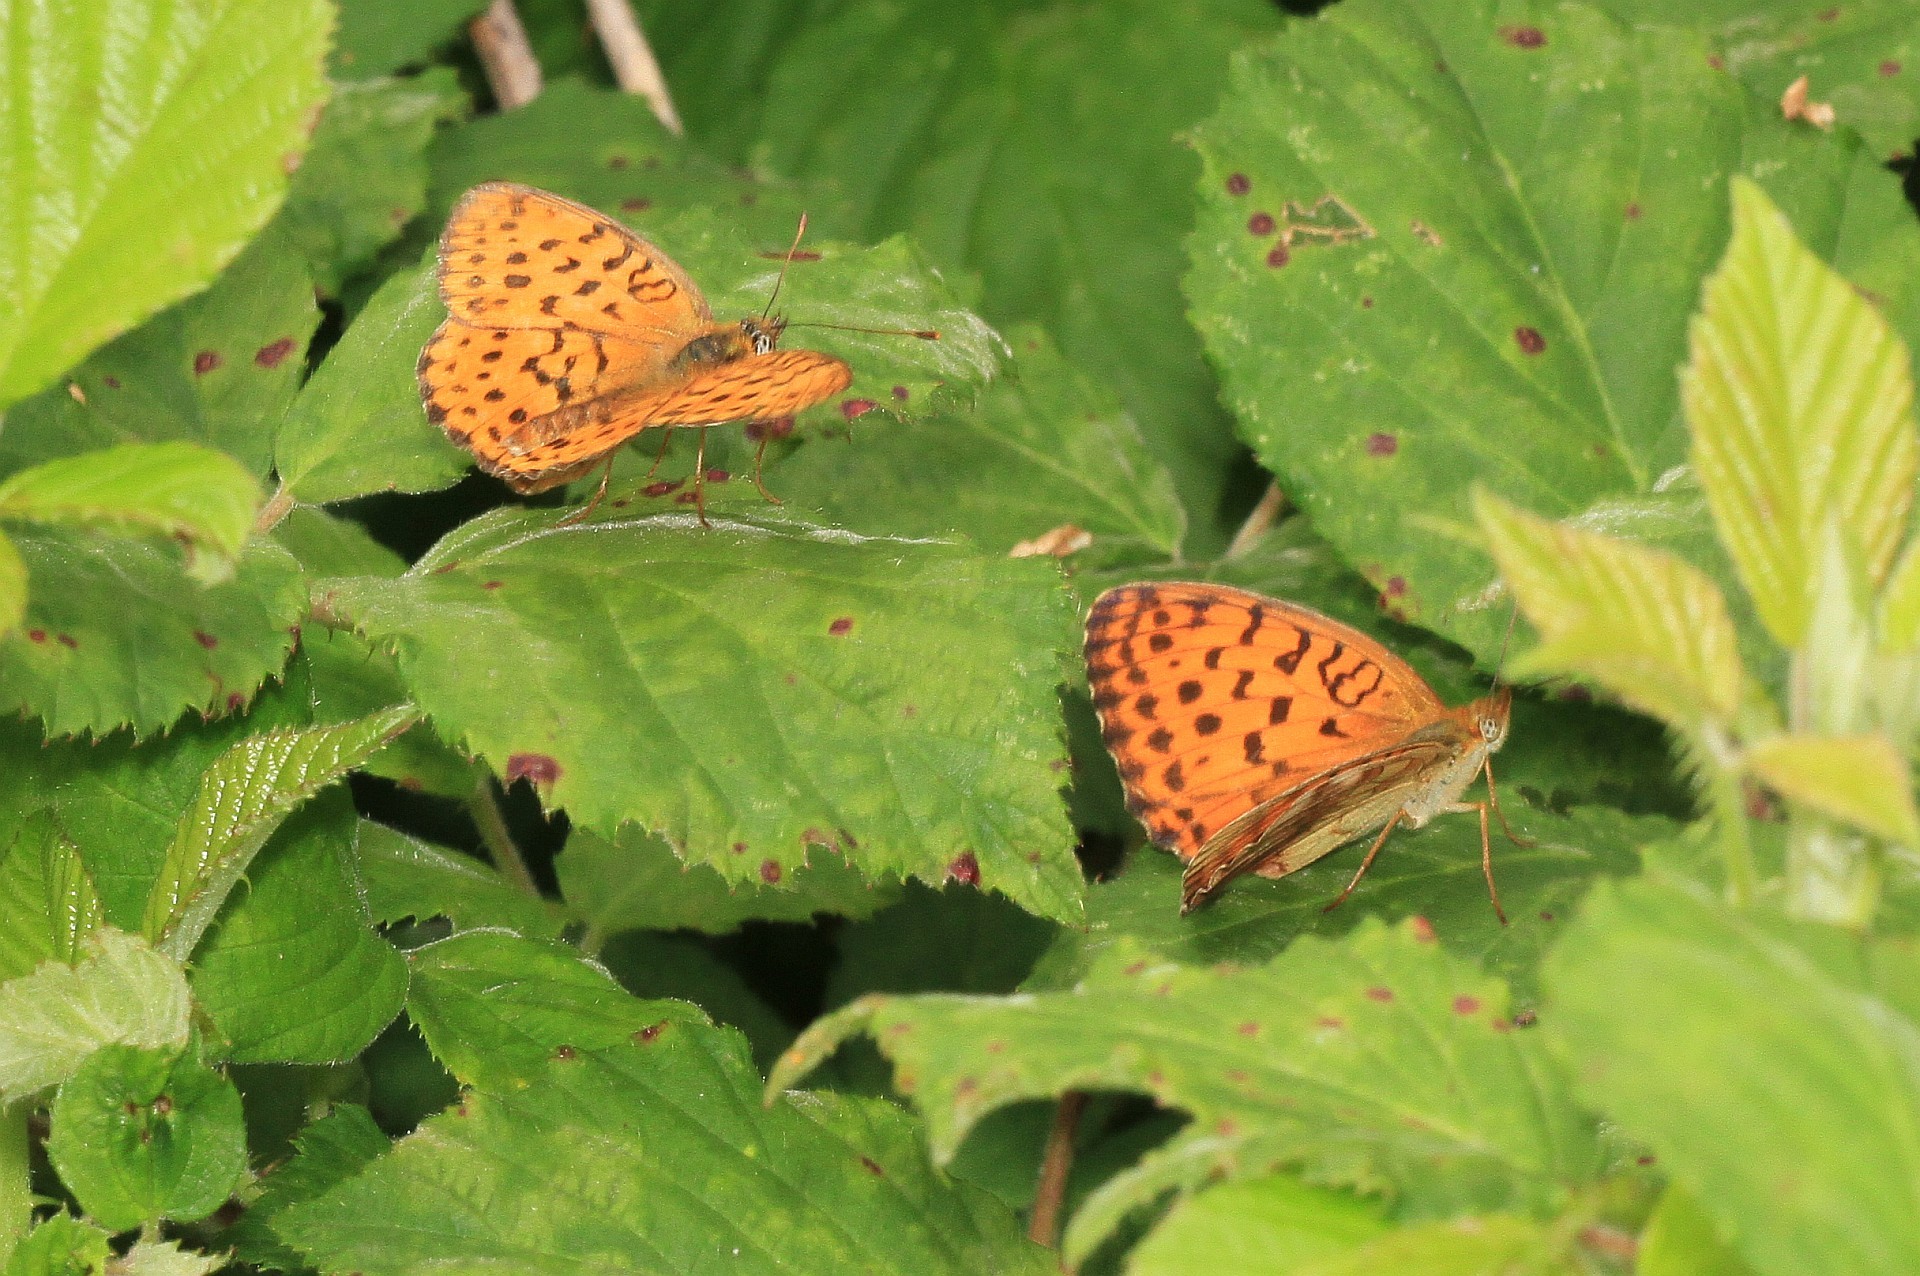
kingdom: Animalia
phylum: Arthropoda
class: Insecta
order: Lepidoptera
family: Nymphalidae
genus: Brenthis
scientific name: Brenthis daphne
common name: Marbled fritillary
